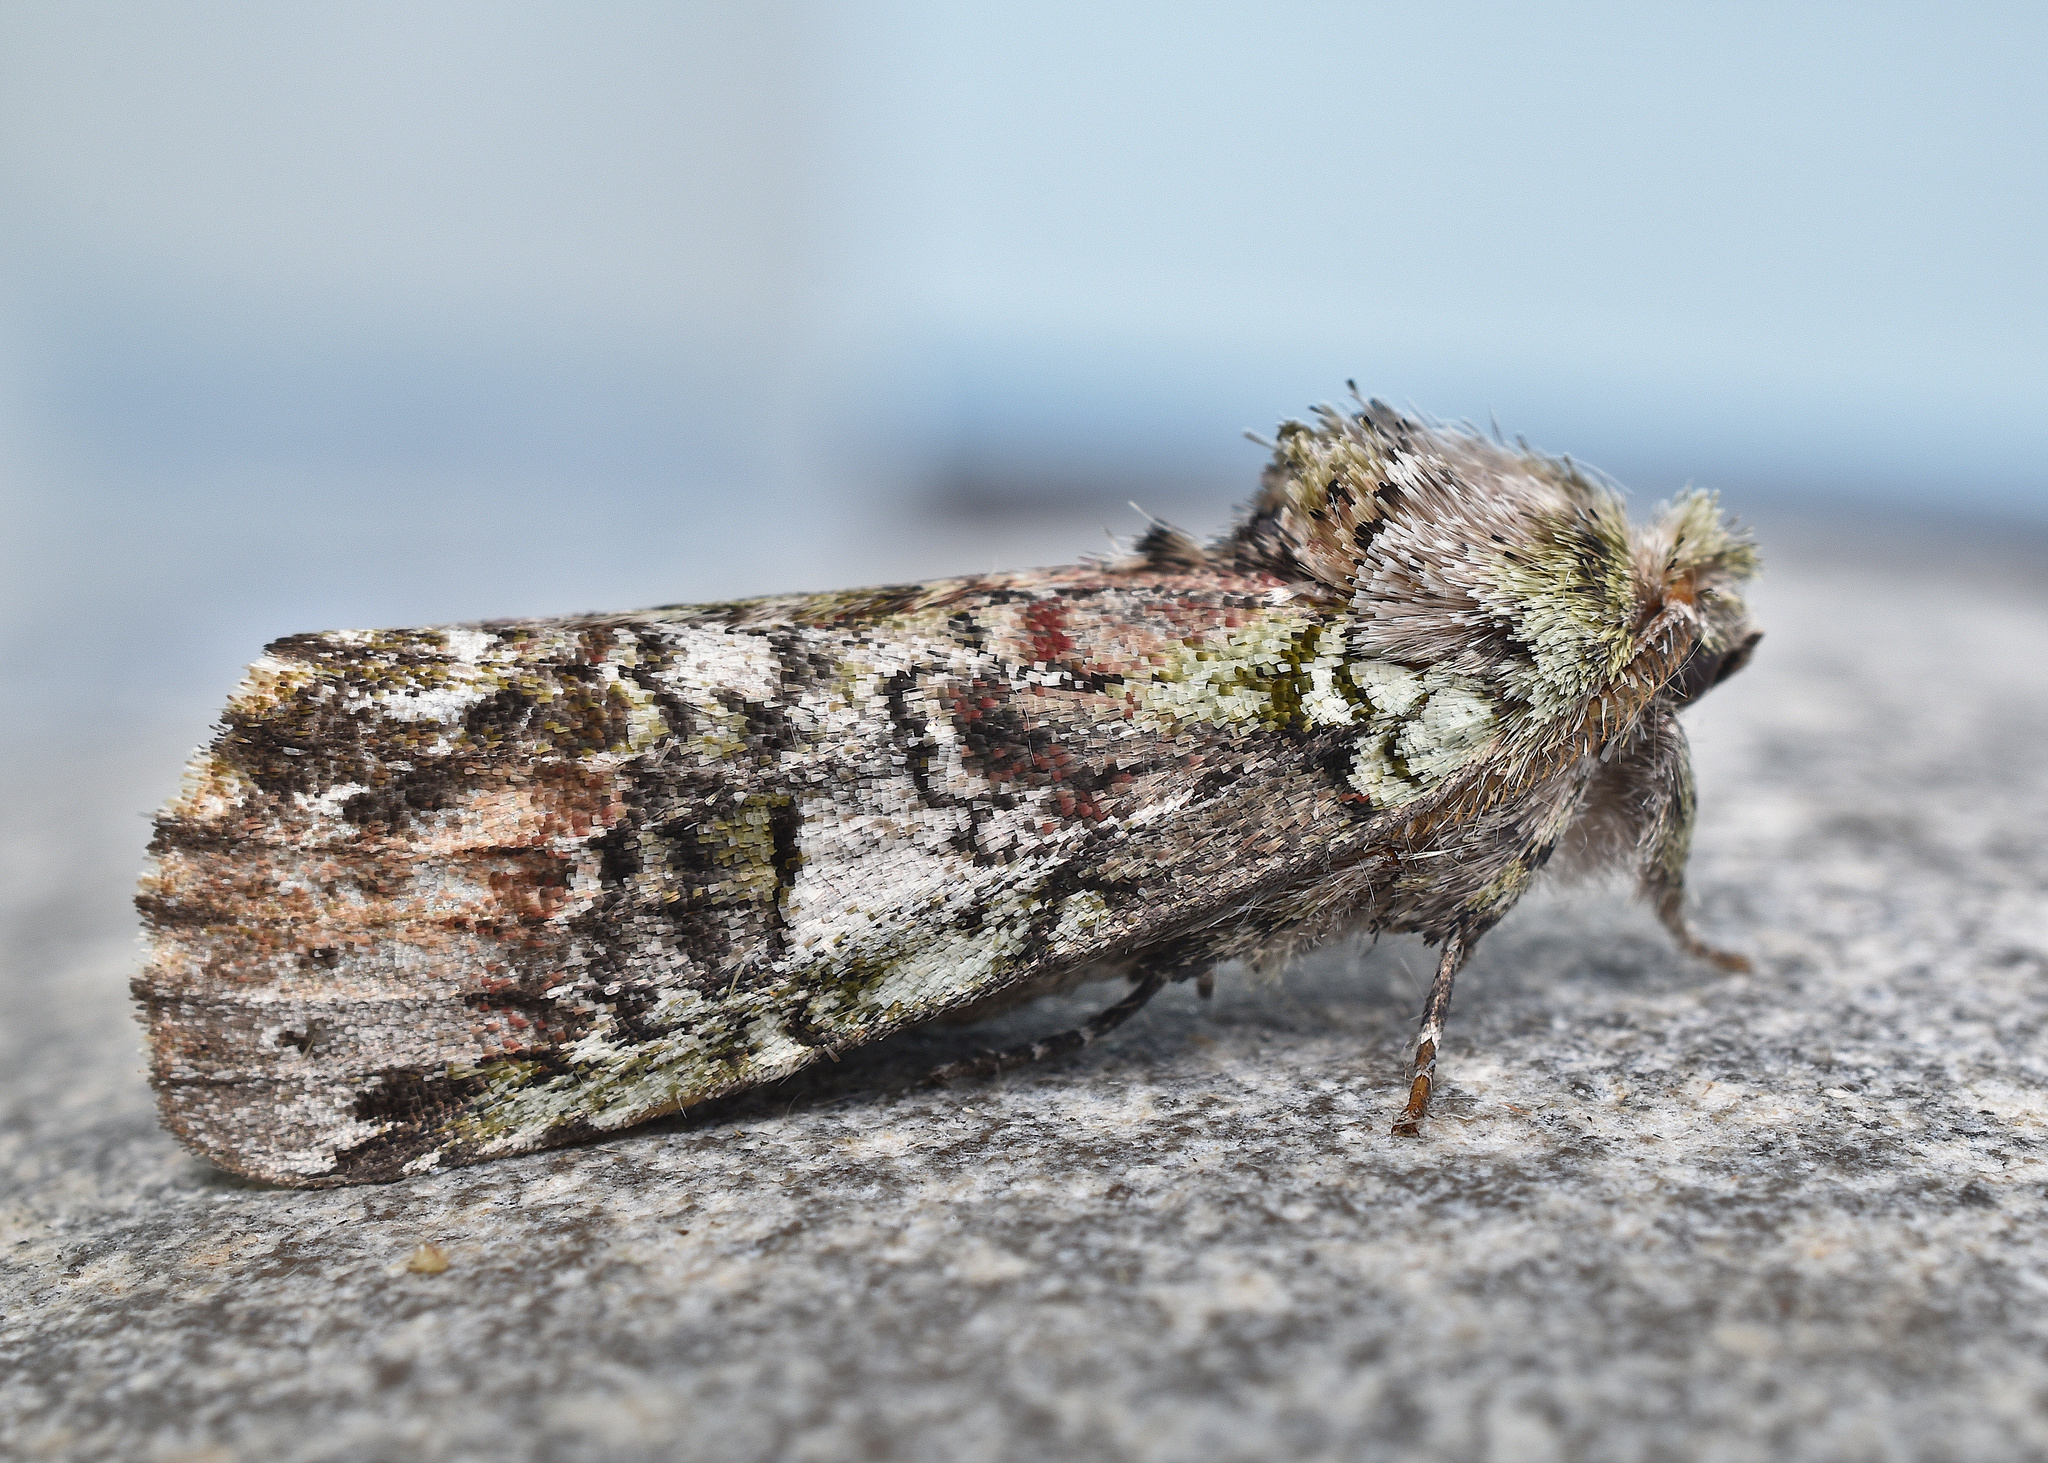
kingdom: Animalia
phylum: Arthropoda
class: Insecta
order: Lepidoptera
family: Notodontidae
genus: Schizura
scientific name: Schizura
